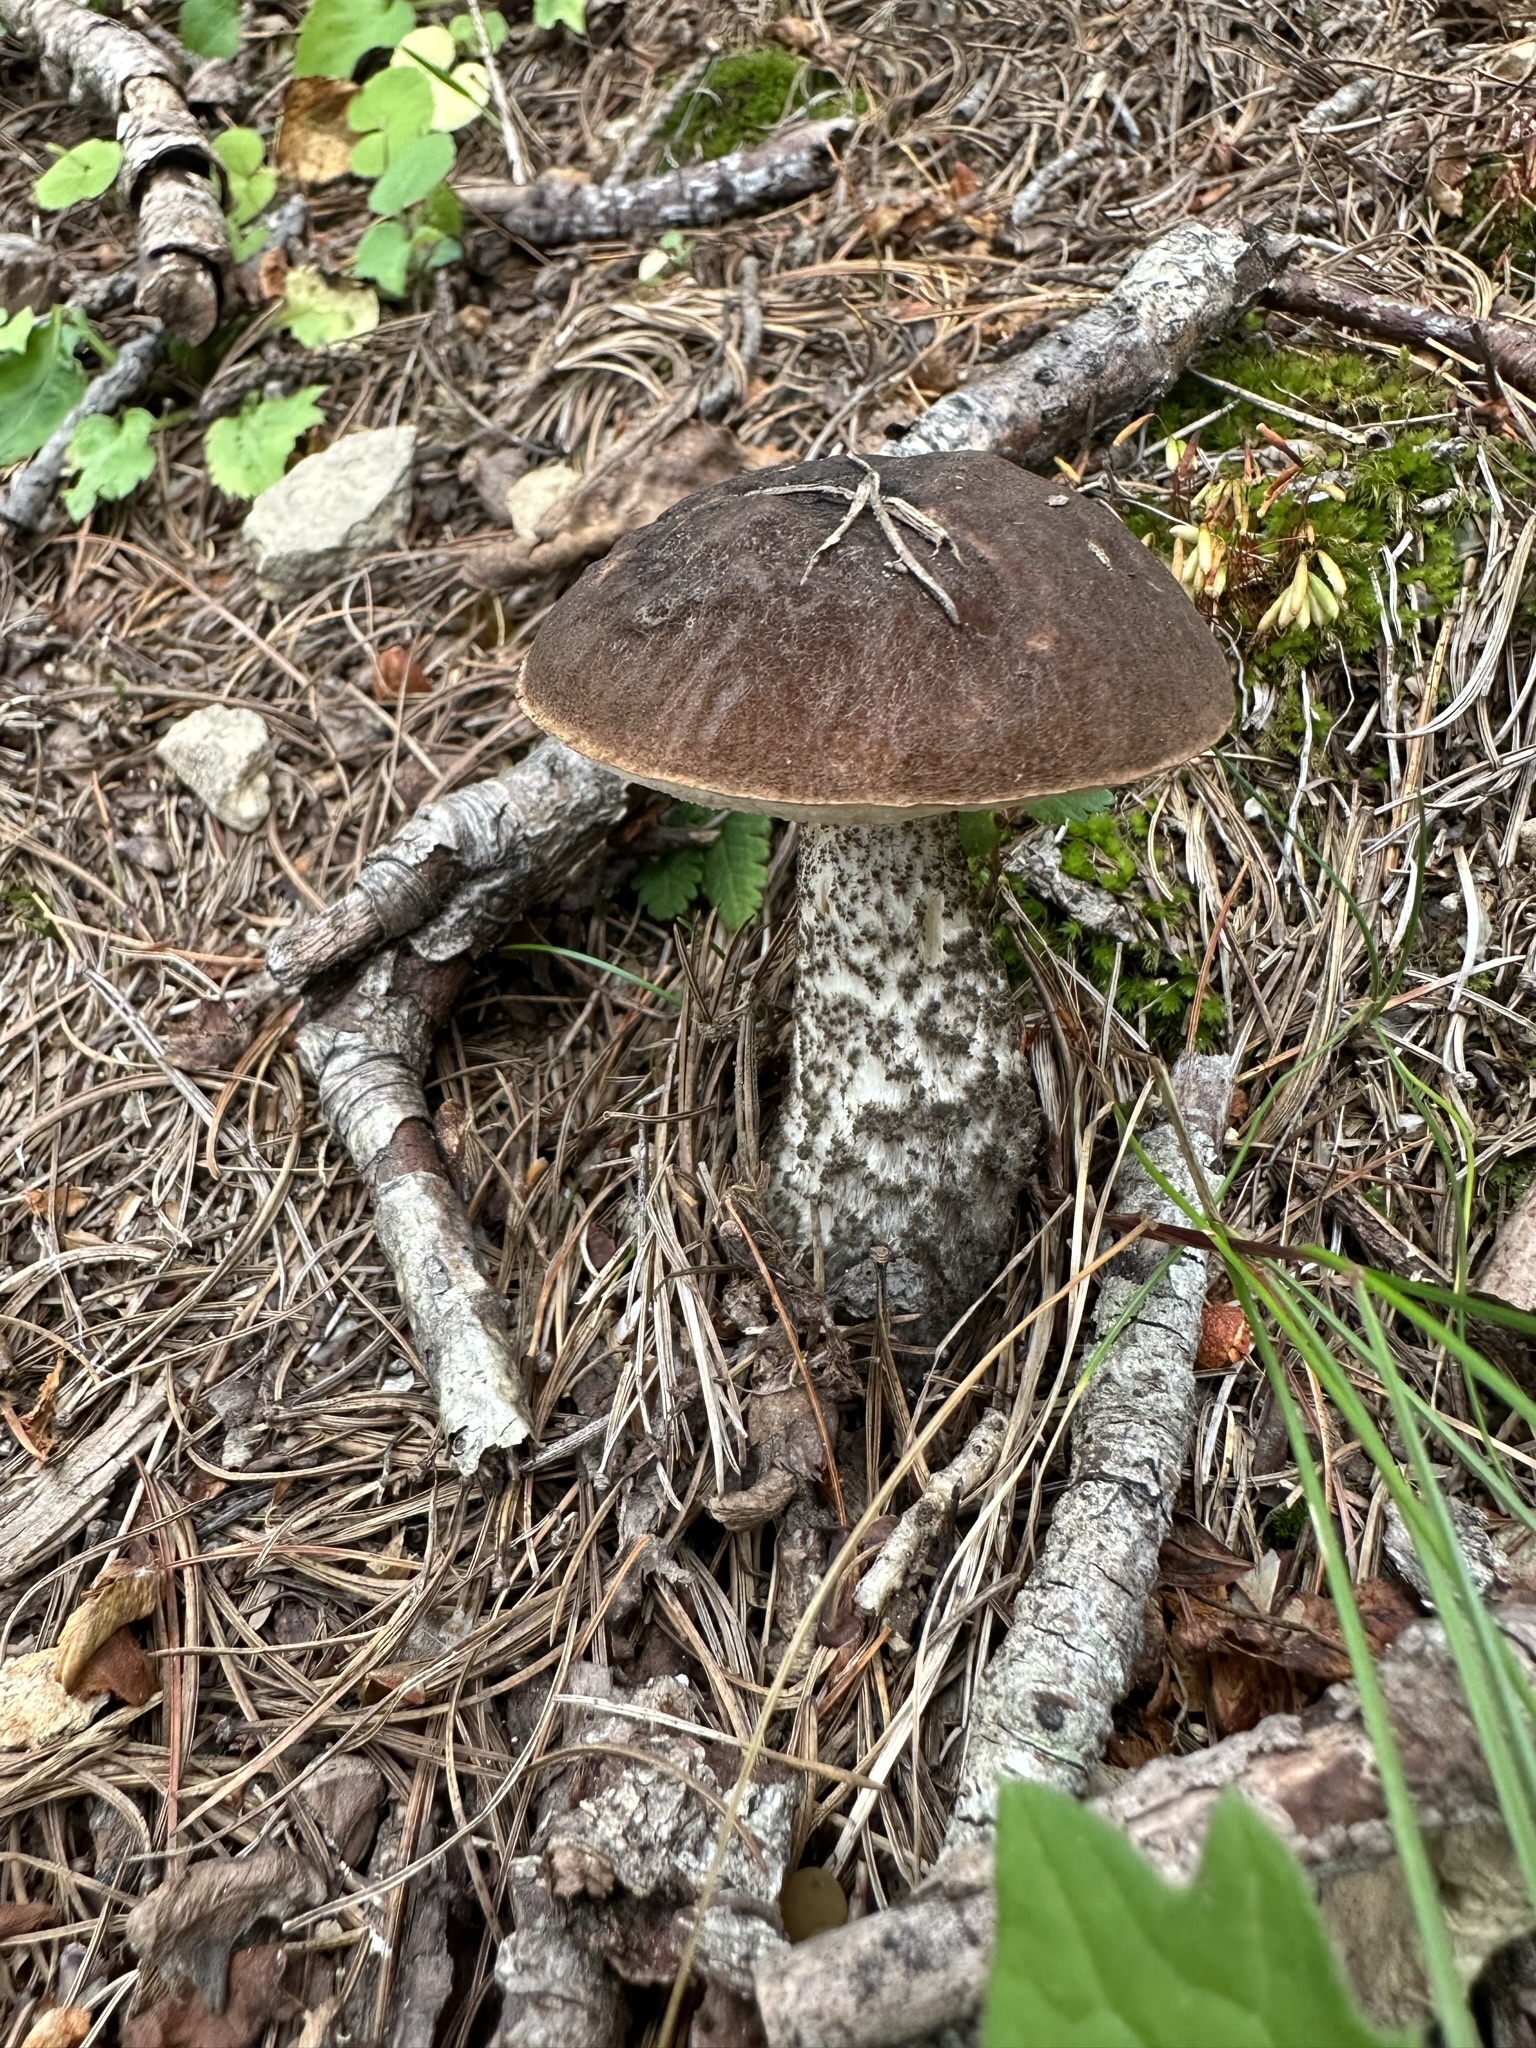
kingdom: Fungi
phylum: Basidiomycota
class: Agaricomycetes
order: Boletales
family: Boletaceae
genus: Leccinum
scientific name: Leccinum scabrum
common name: Blushing bolete
